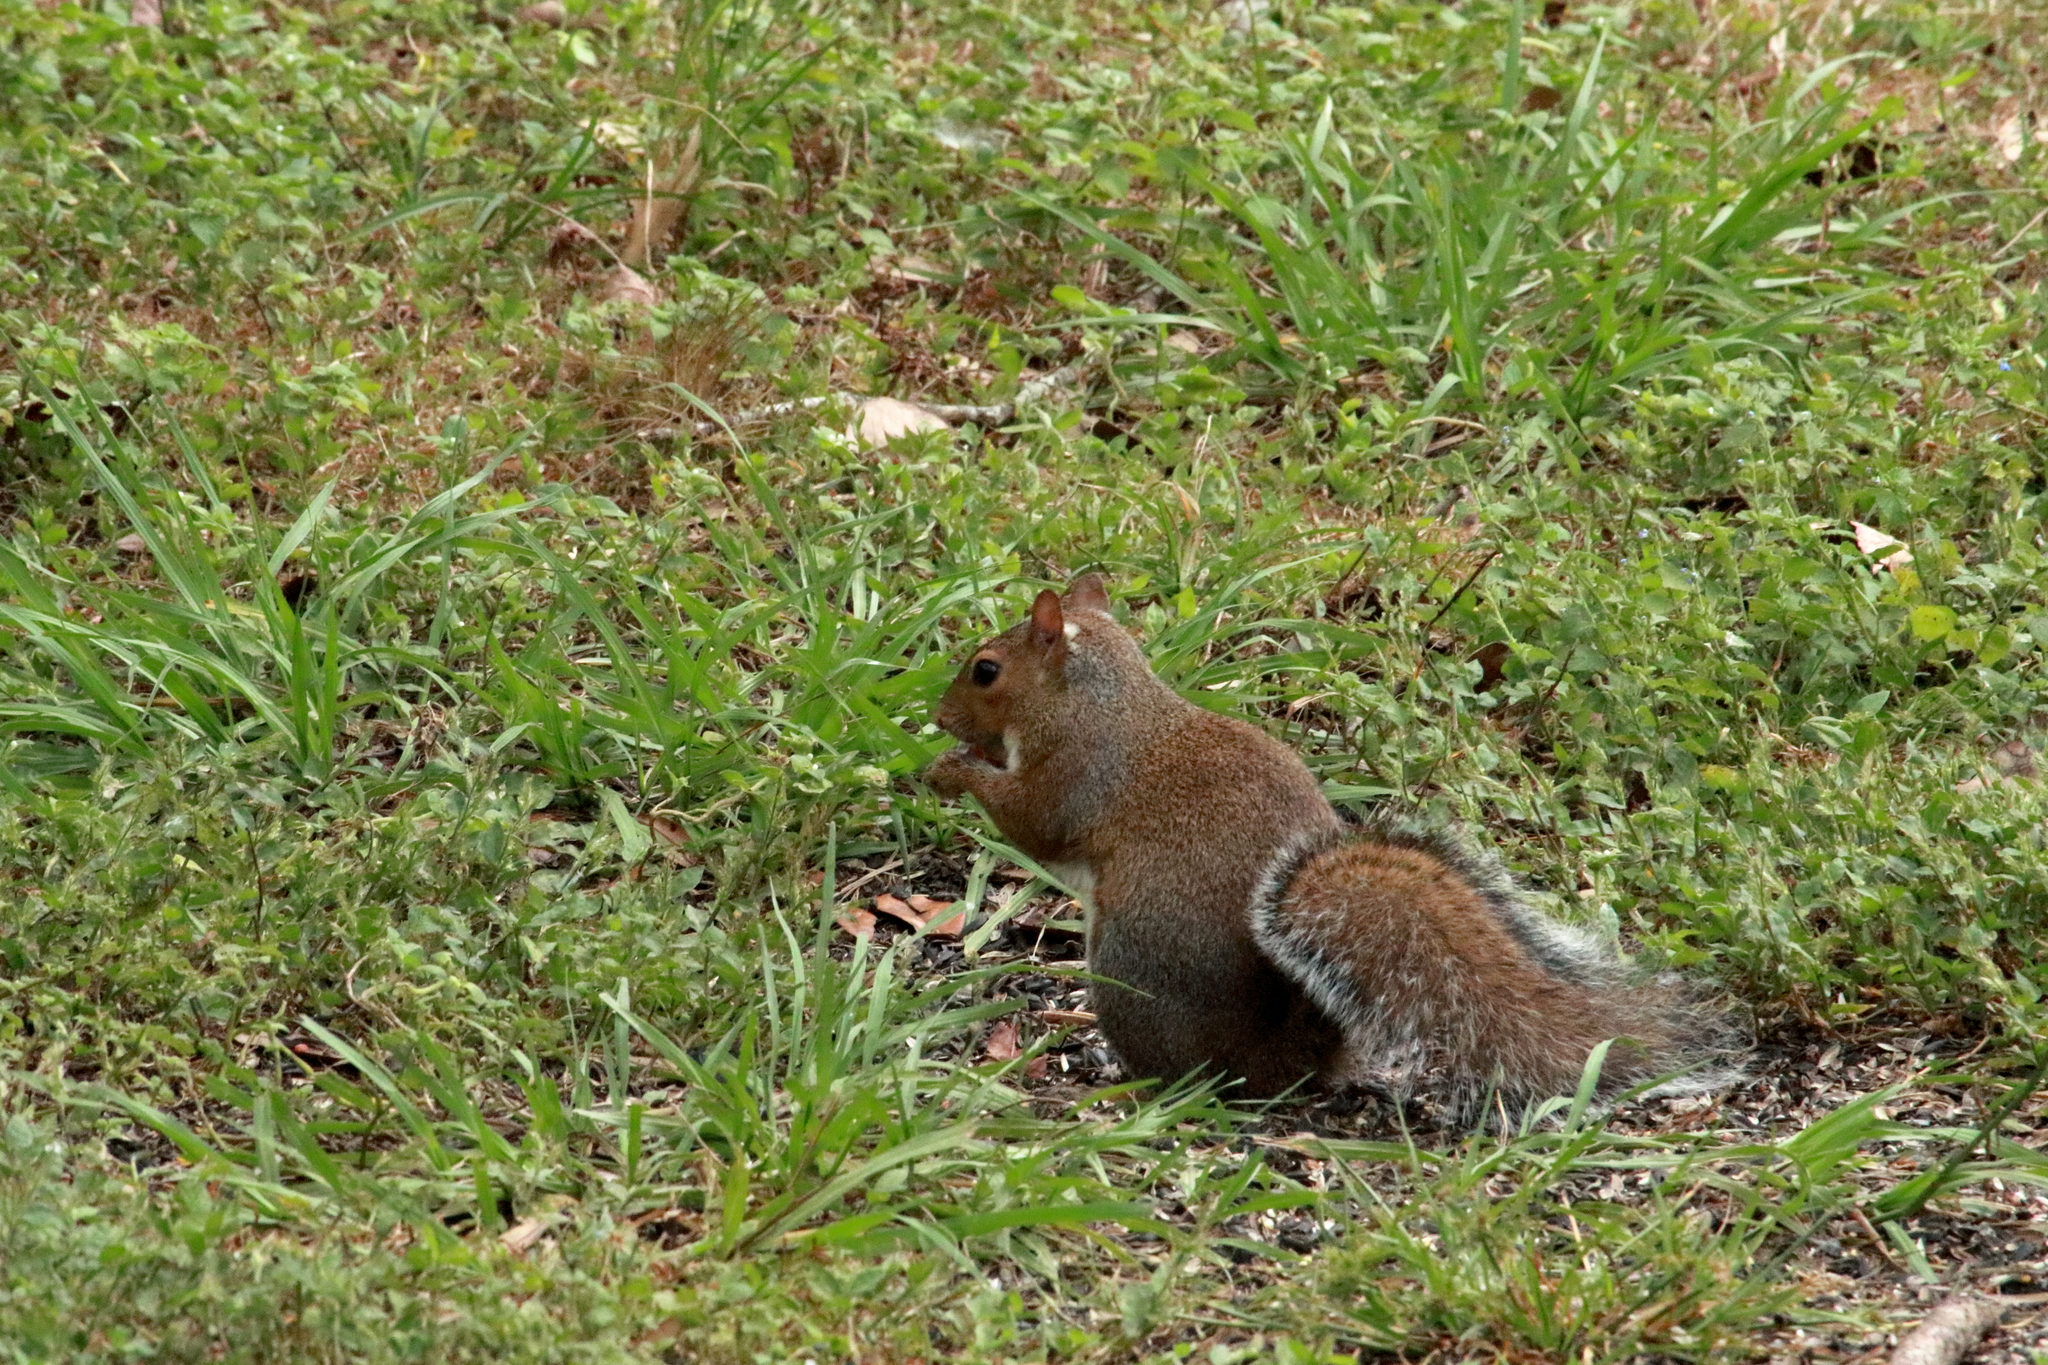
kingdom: Animalia
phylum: Chordata
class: Mammalia
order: Rodentia
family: Sciuridae
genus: Sciurus
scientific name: Sciurus carolinensis
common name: Eastern gray squirrel
